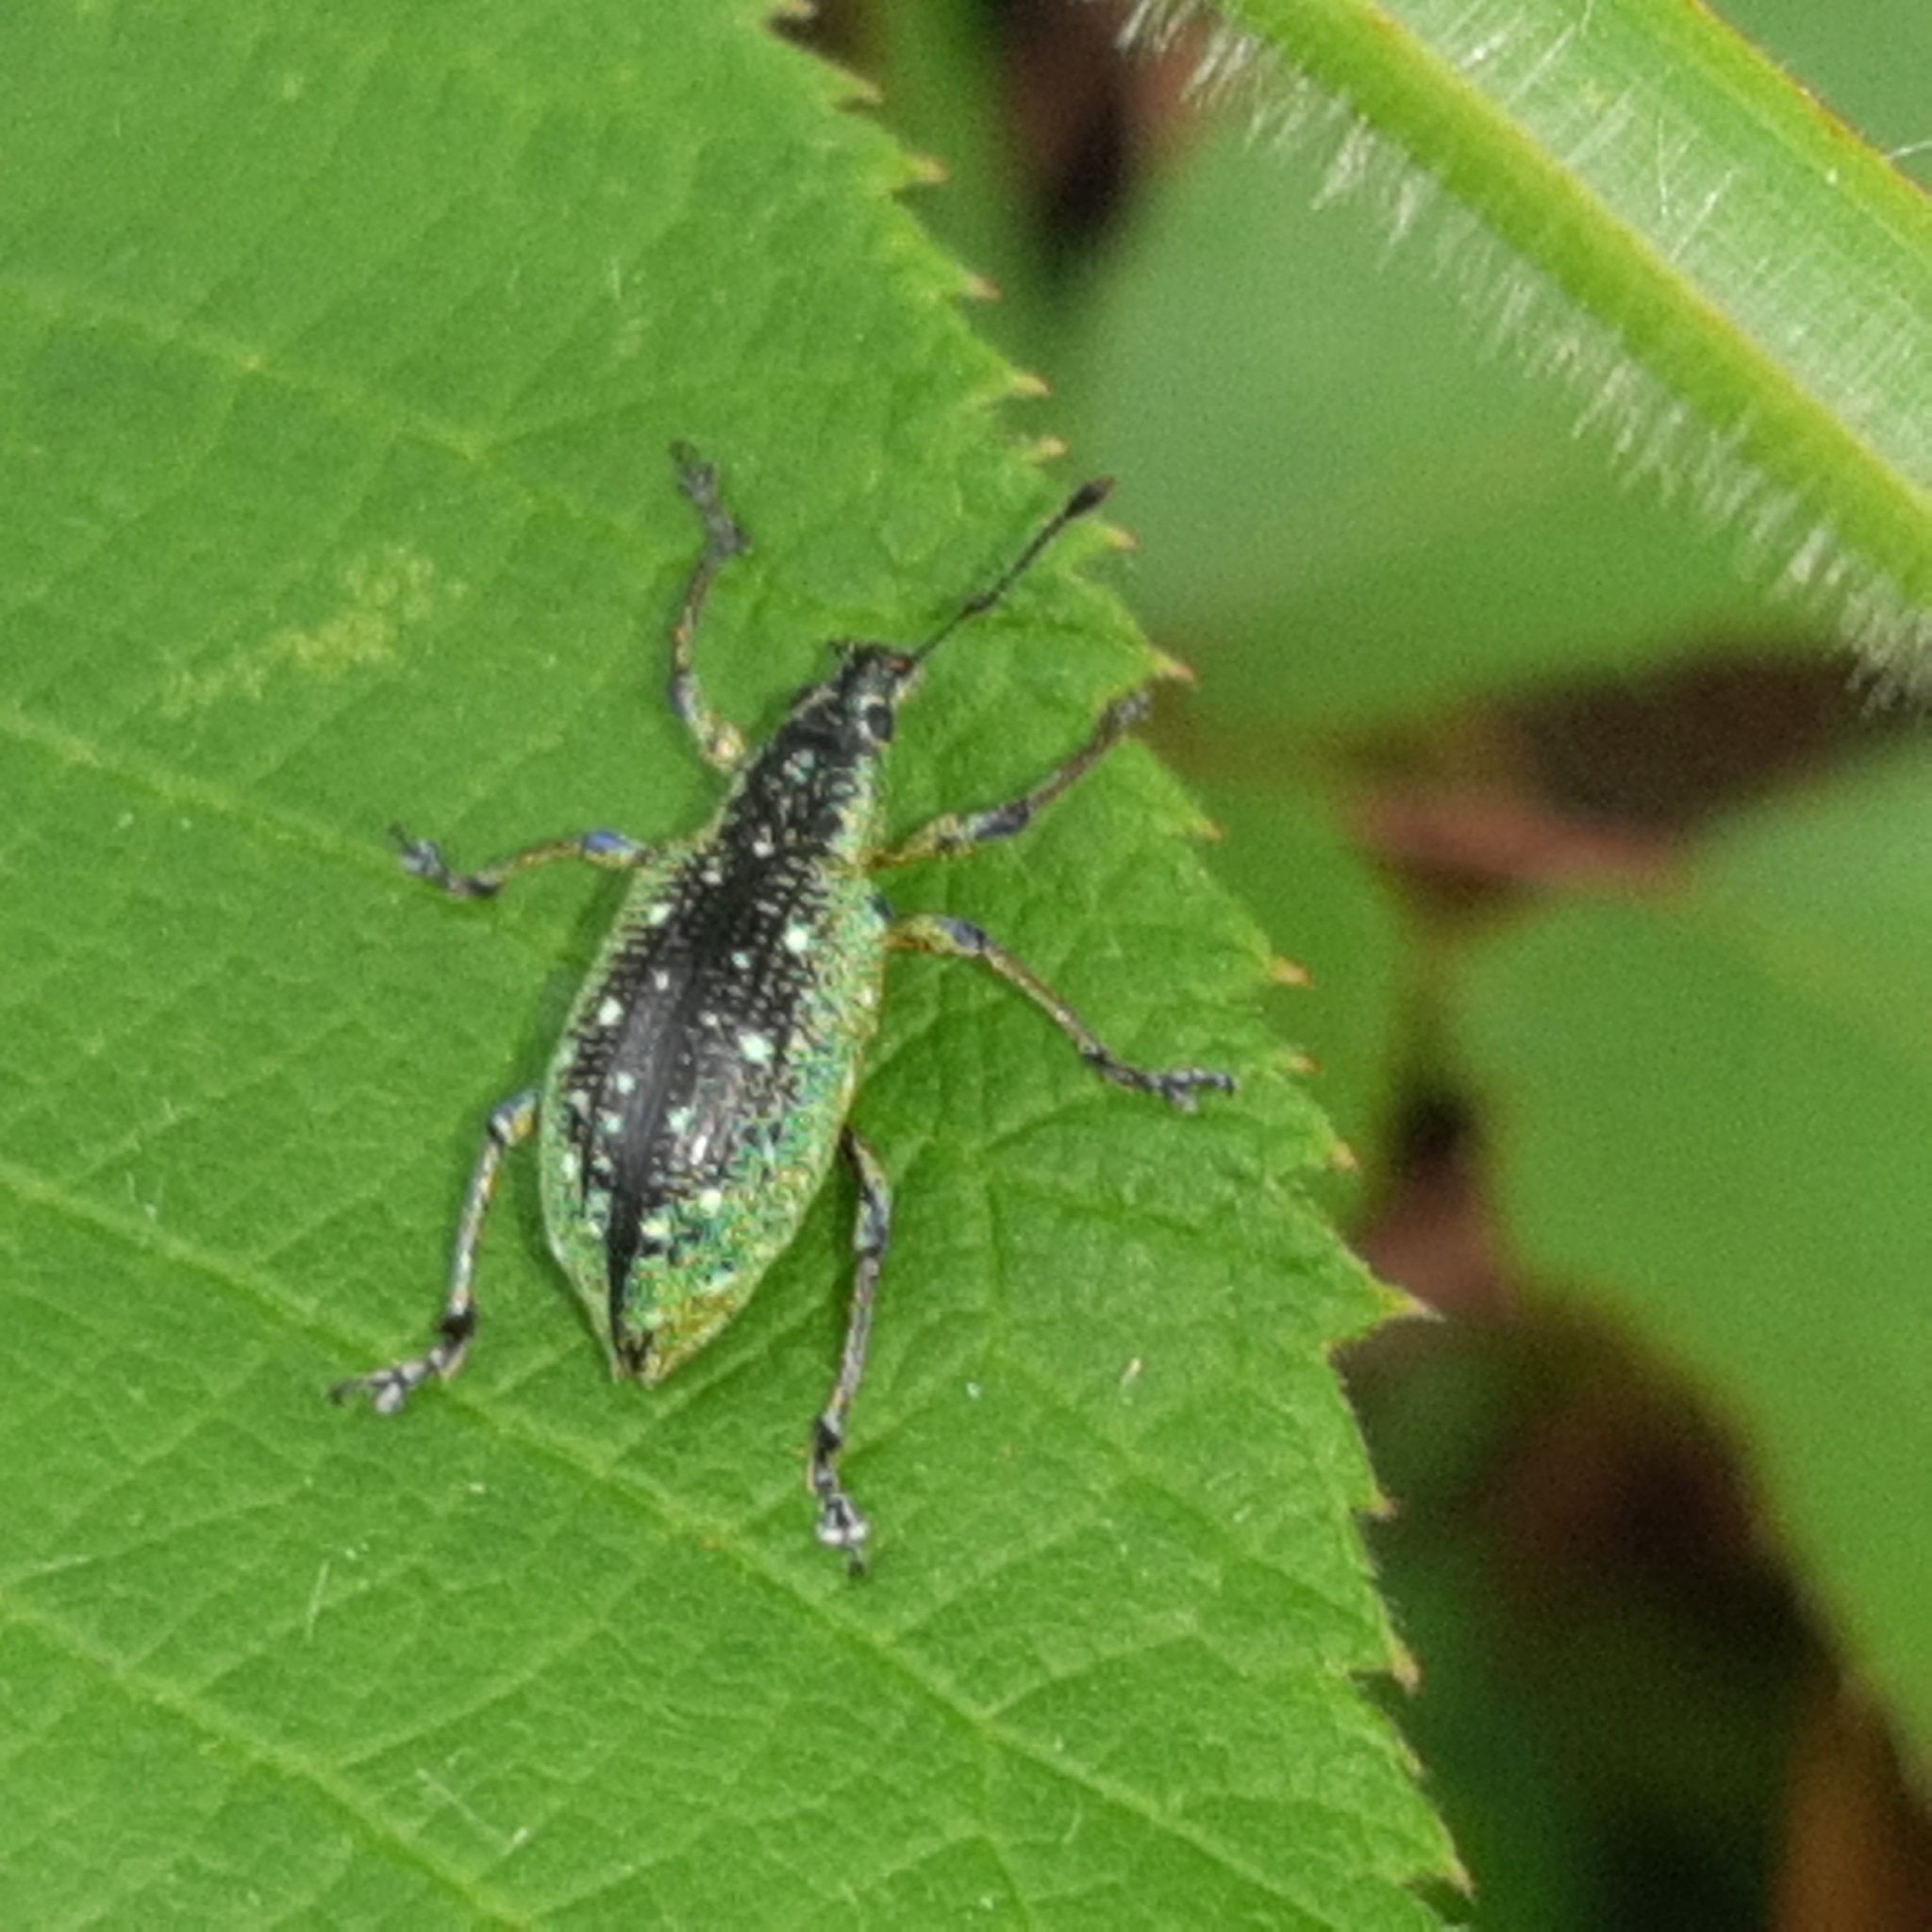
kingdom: Animalia
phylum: Arthropoda
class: Insecta
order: Coleoptera
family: Curculionidae
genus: Exophthalmus
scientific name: Exophthalmus jekelianus
